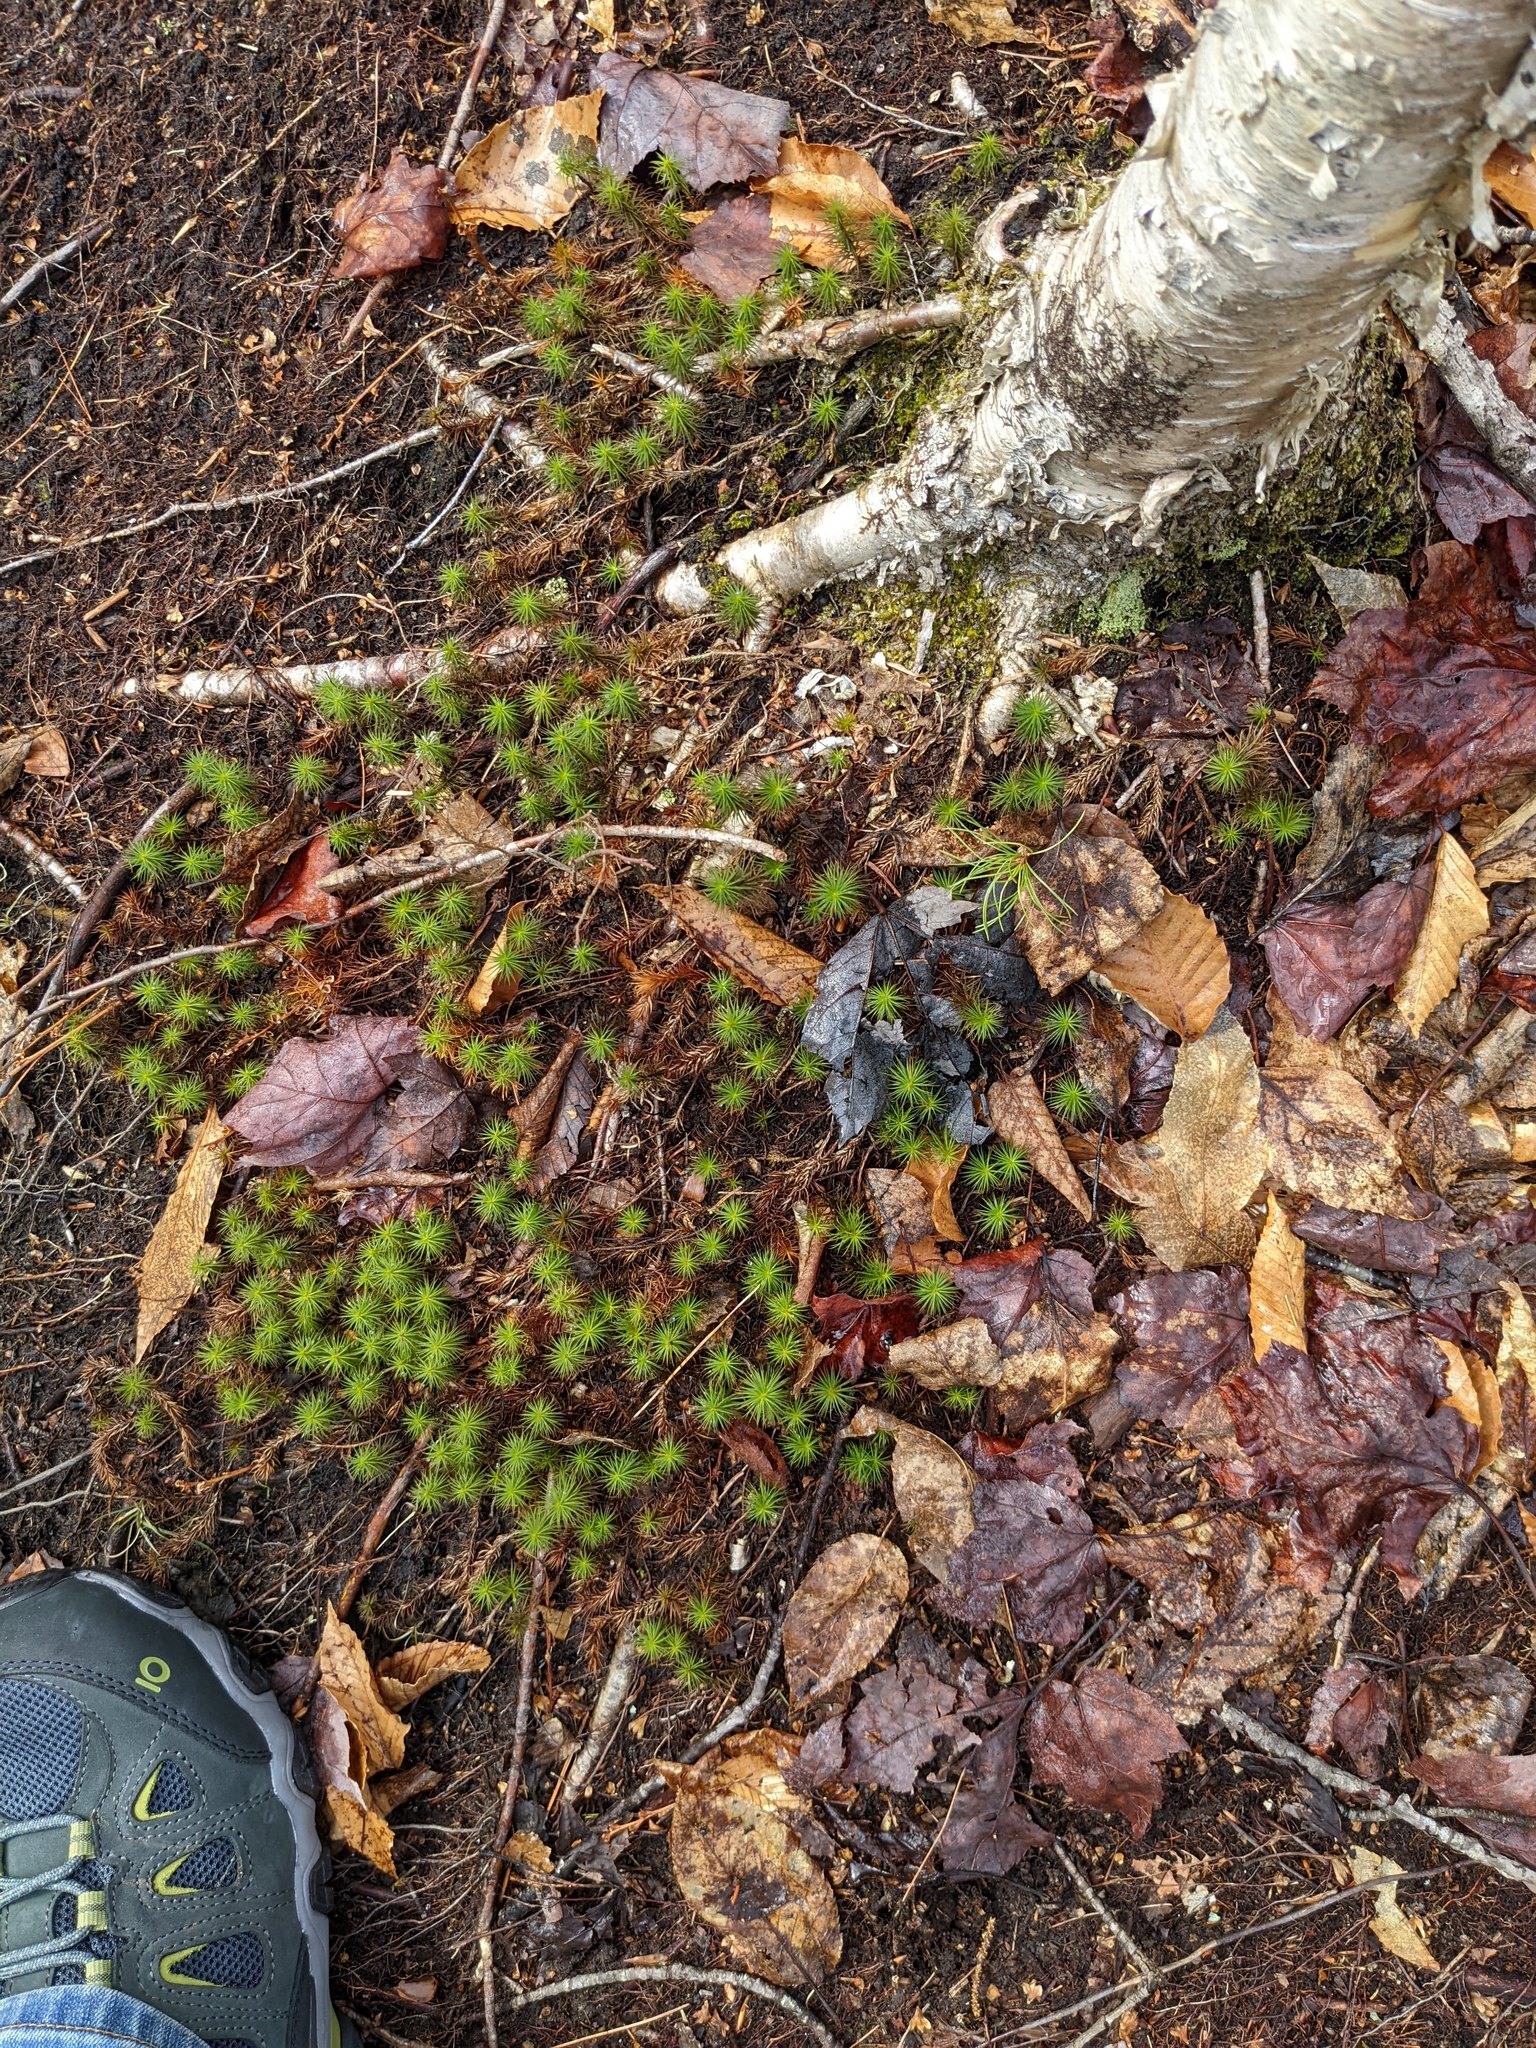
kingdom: Plantae
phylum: Tracheophyta
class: Magnoliopsida
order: Fagales
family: Betulaceae
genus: Betula
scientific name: Betula alleghaniensis
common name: Yellow birch
